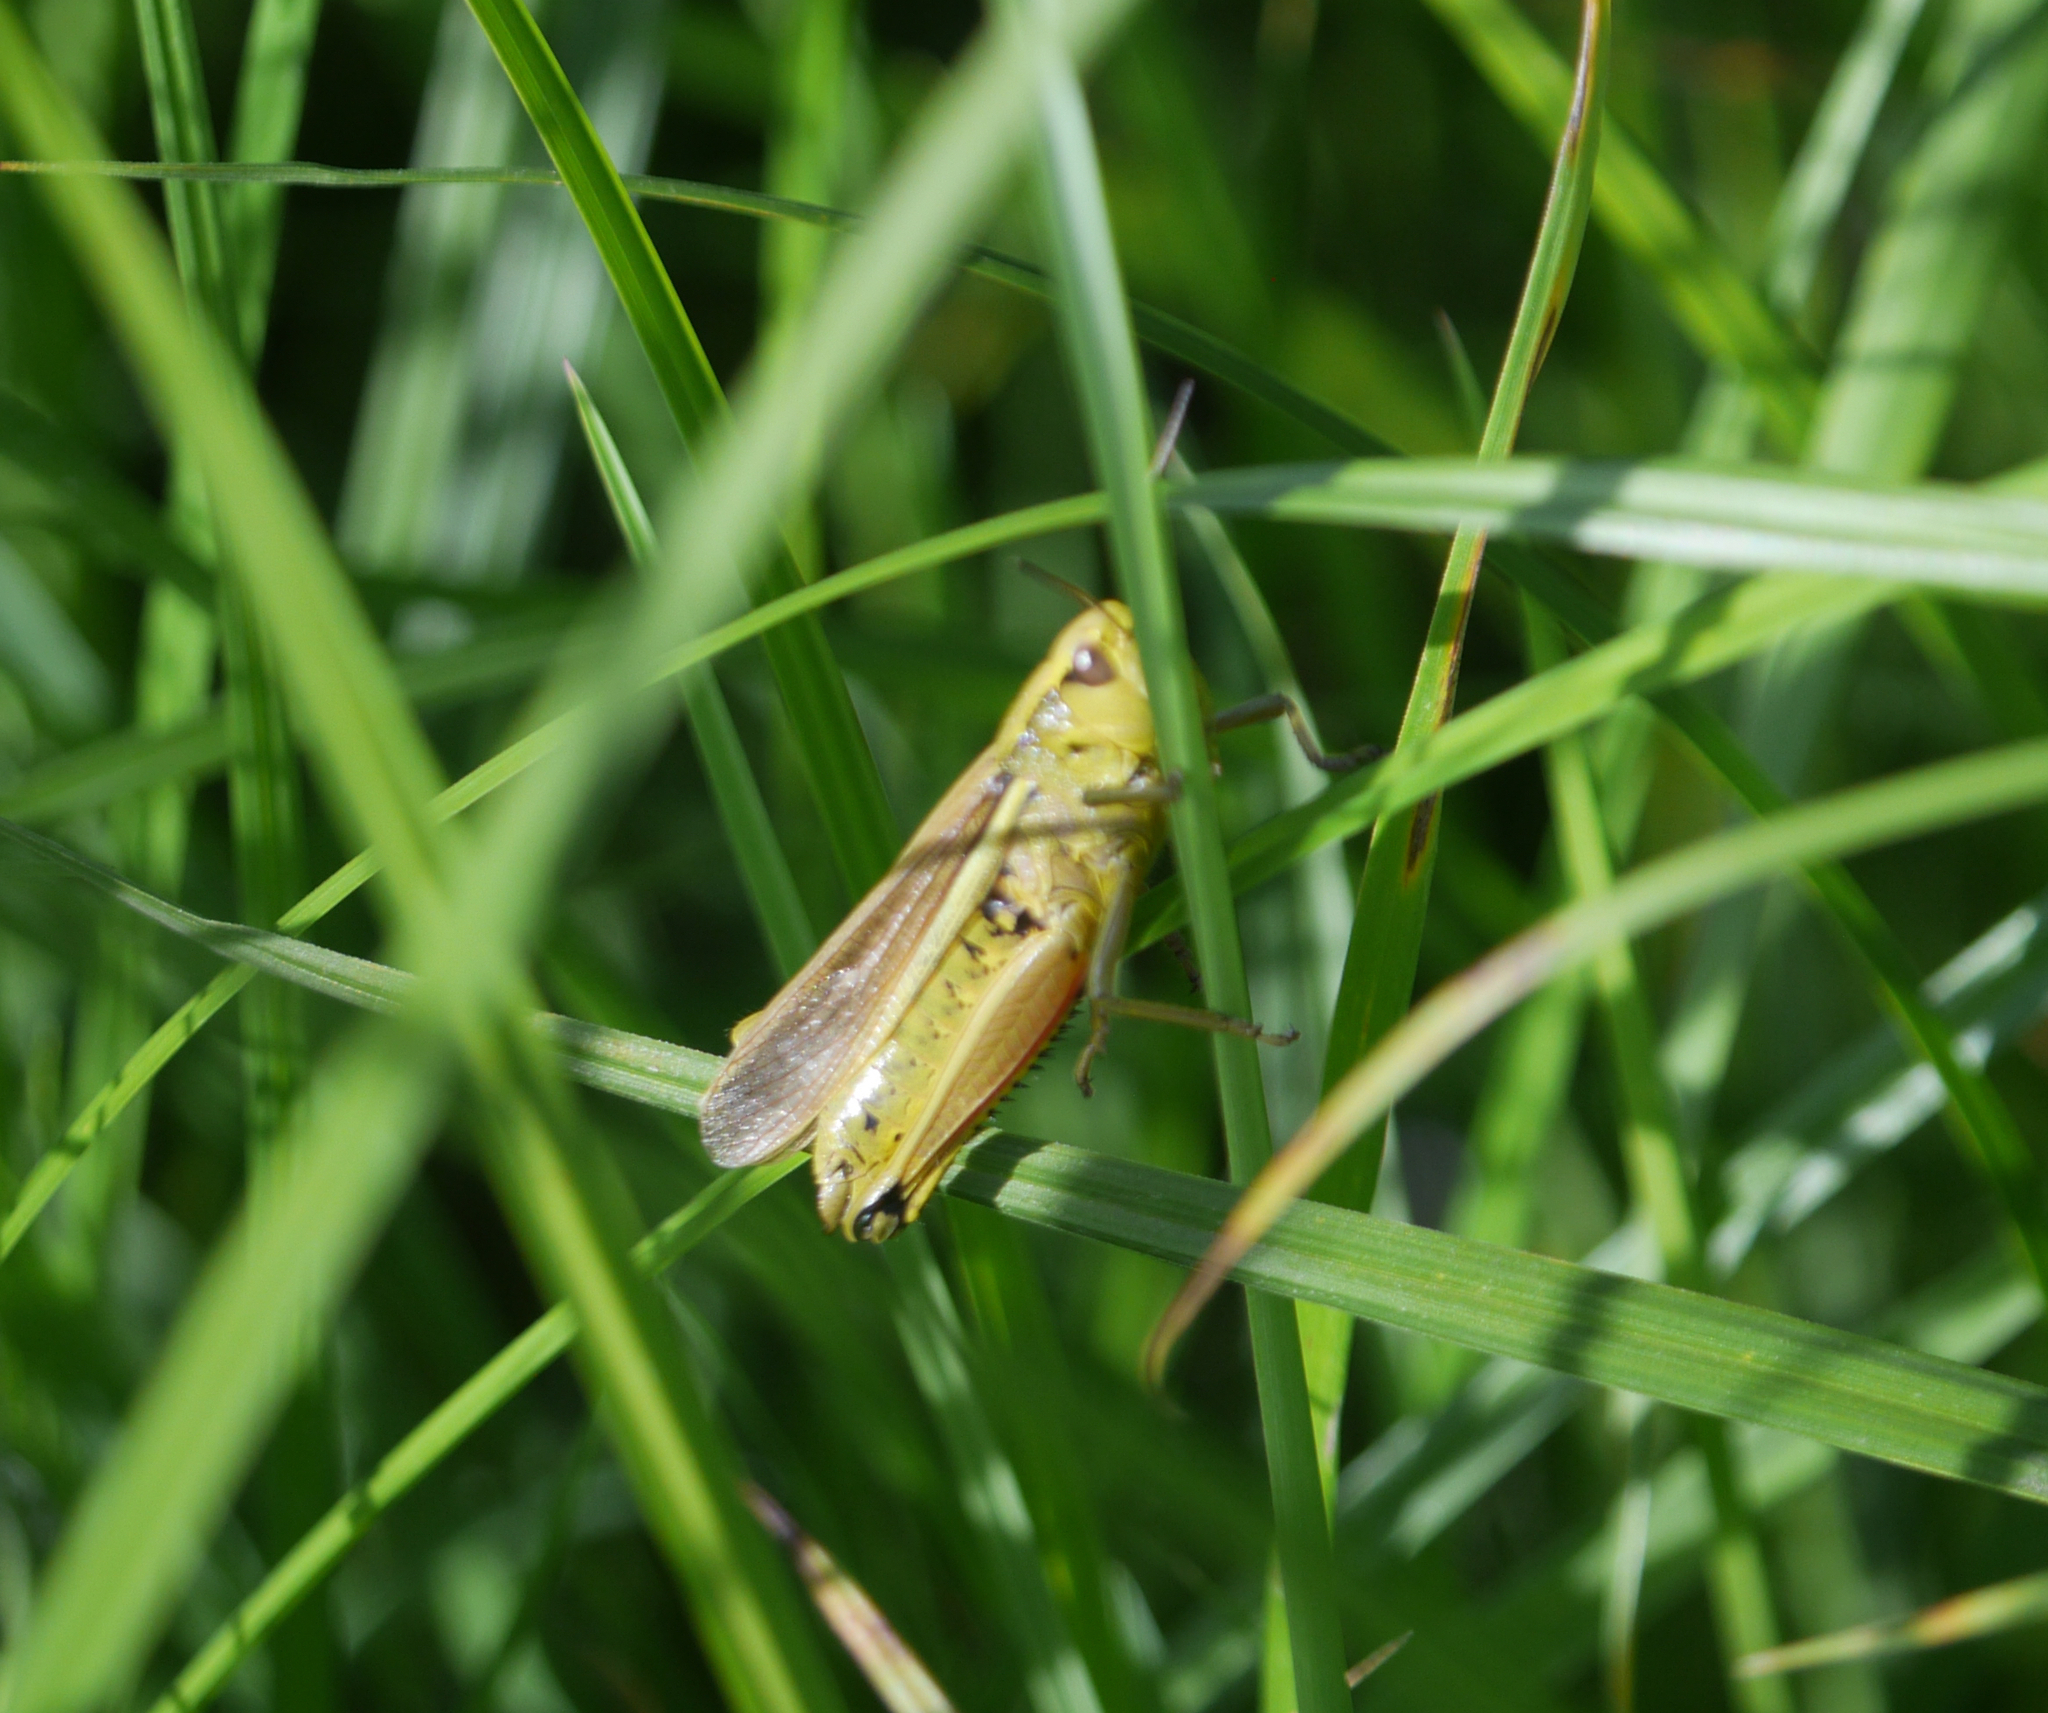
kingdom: Animalia
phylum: Arthropoda
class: Insecta
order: Orthoptera
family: Acrididae
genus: Stethophyma
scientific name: Stethophyma grossum
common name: Large marsh grasshopper
